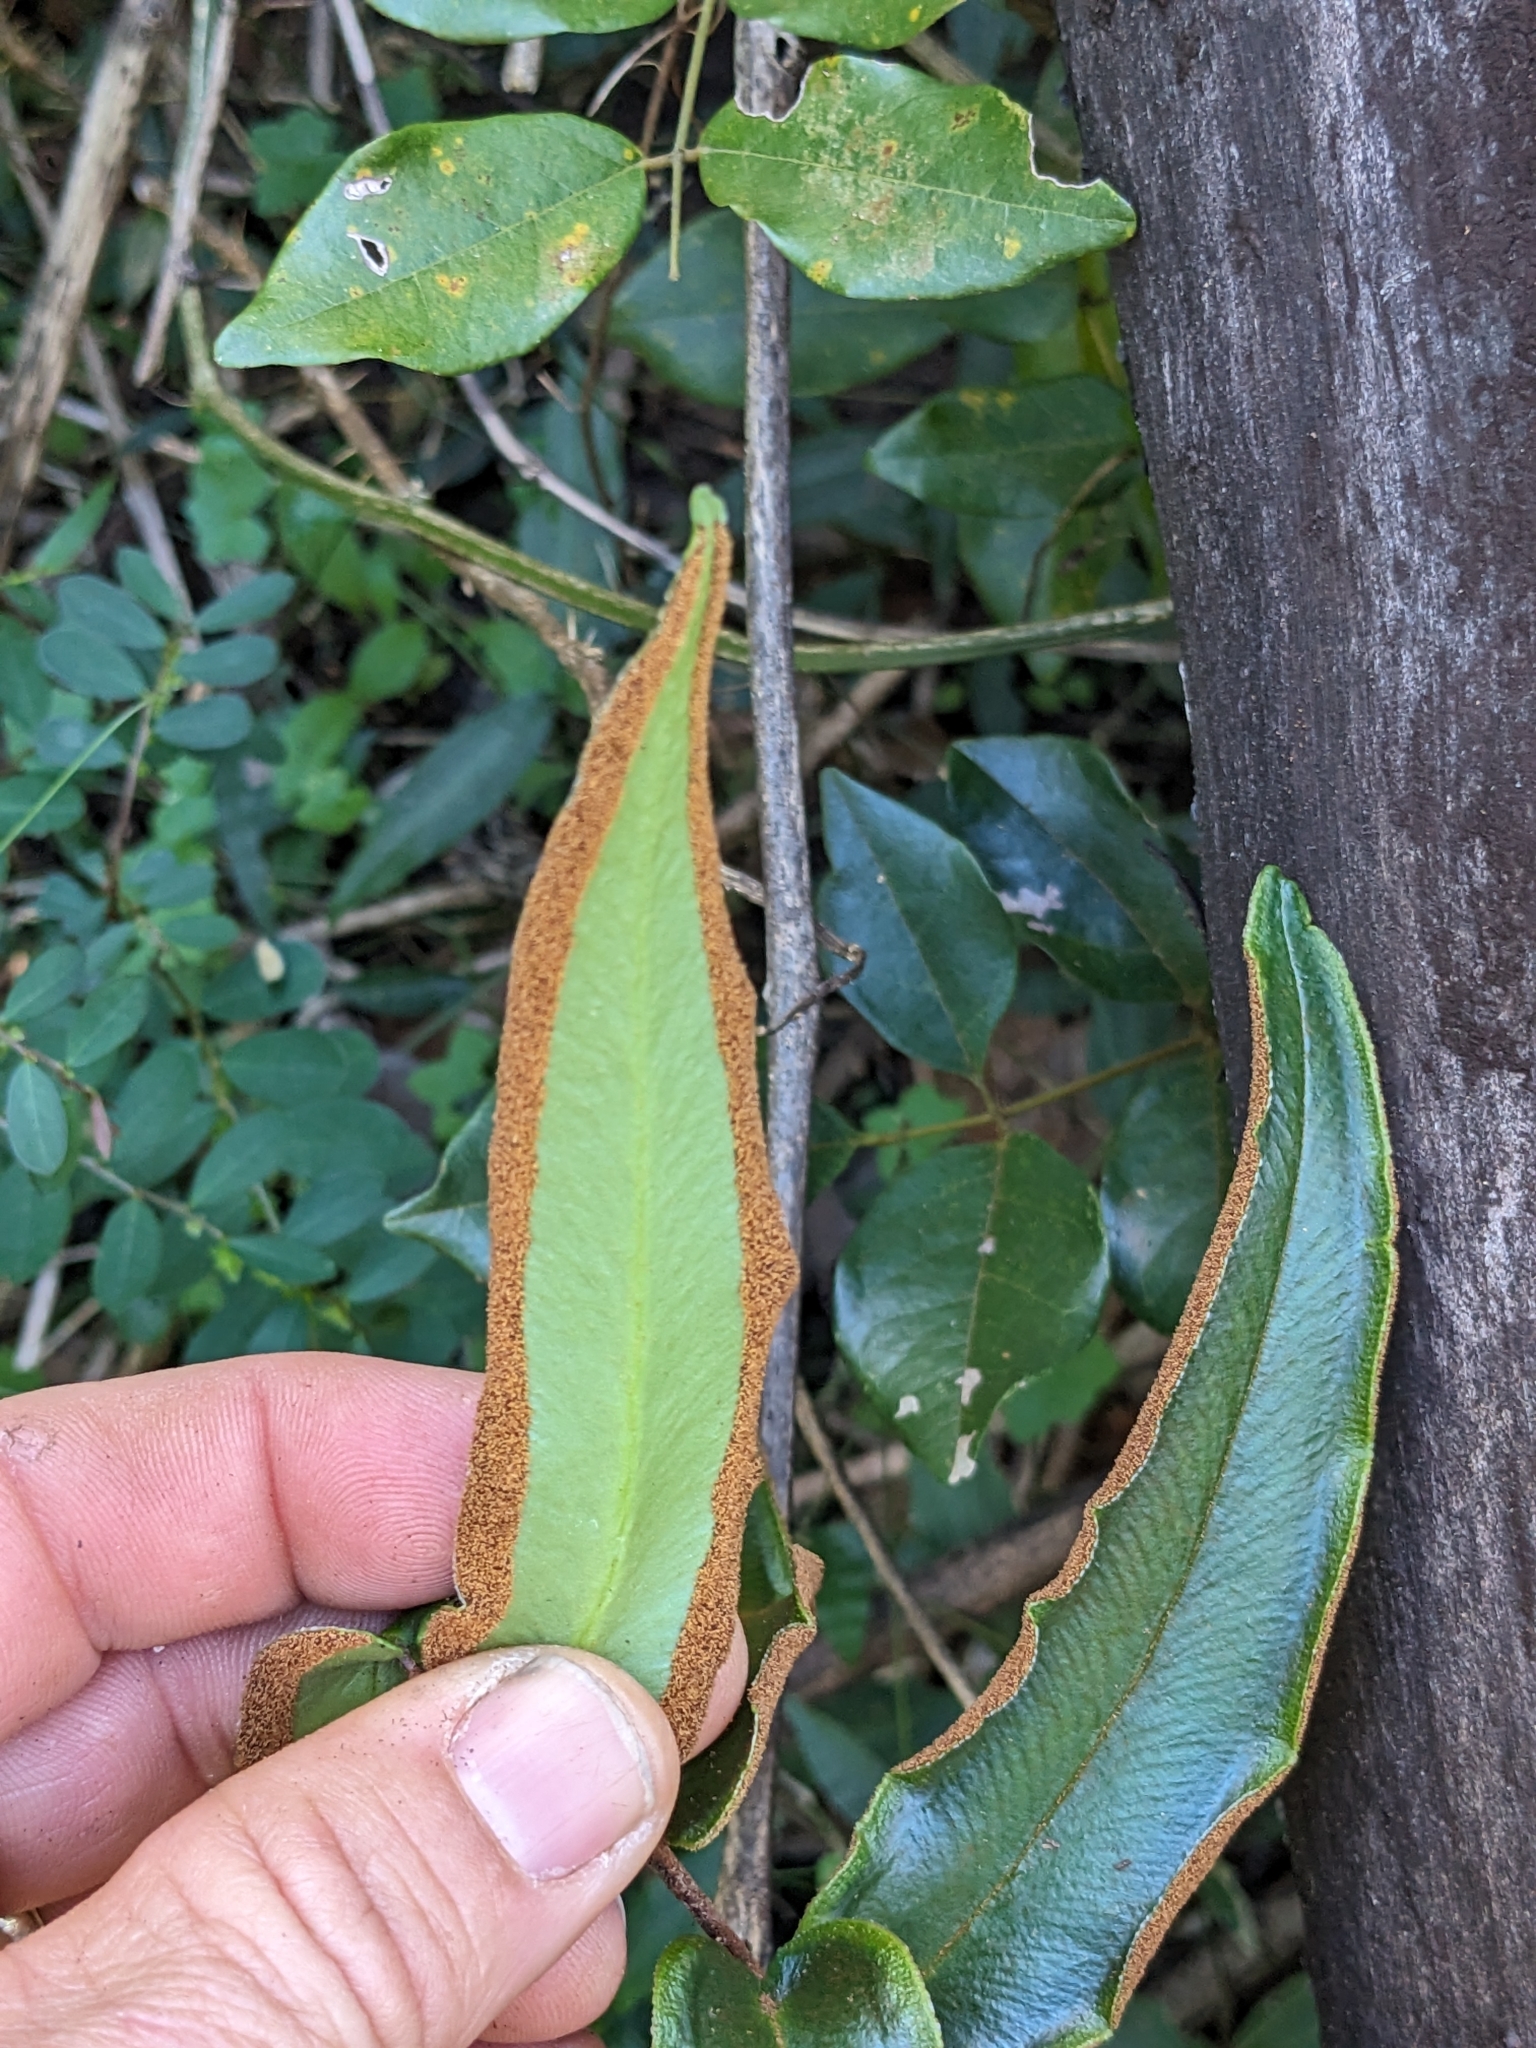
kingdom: Plantae
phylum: Tracheophyta
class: Polypodiopsida
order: Polypodiales
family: Pteridaceae
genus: Pellaea
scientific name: Pellaea paradoxa
